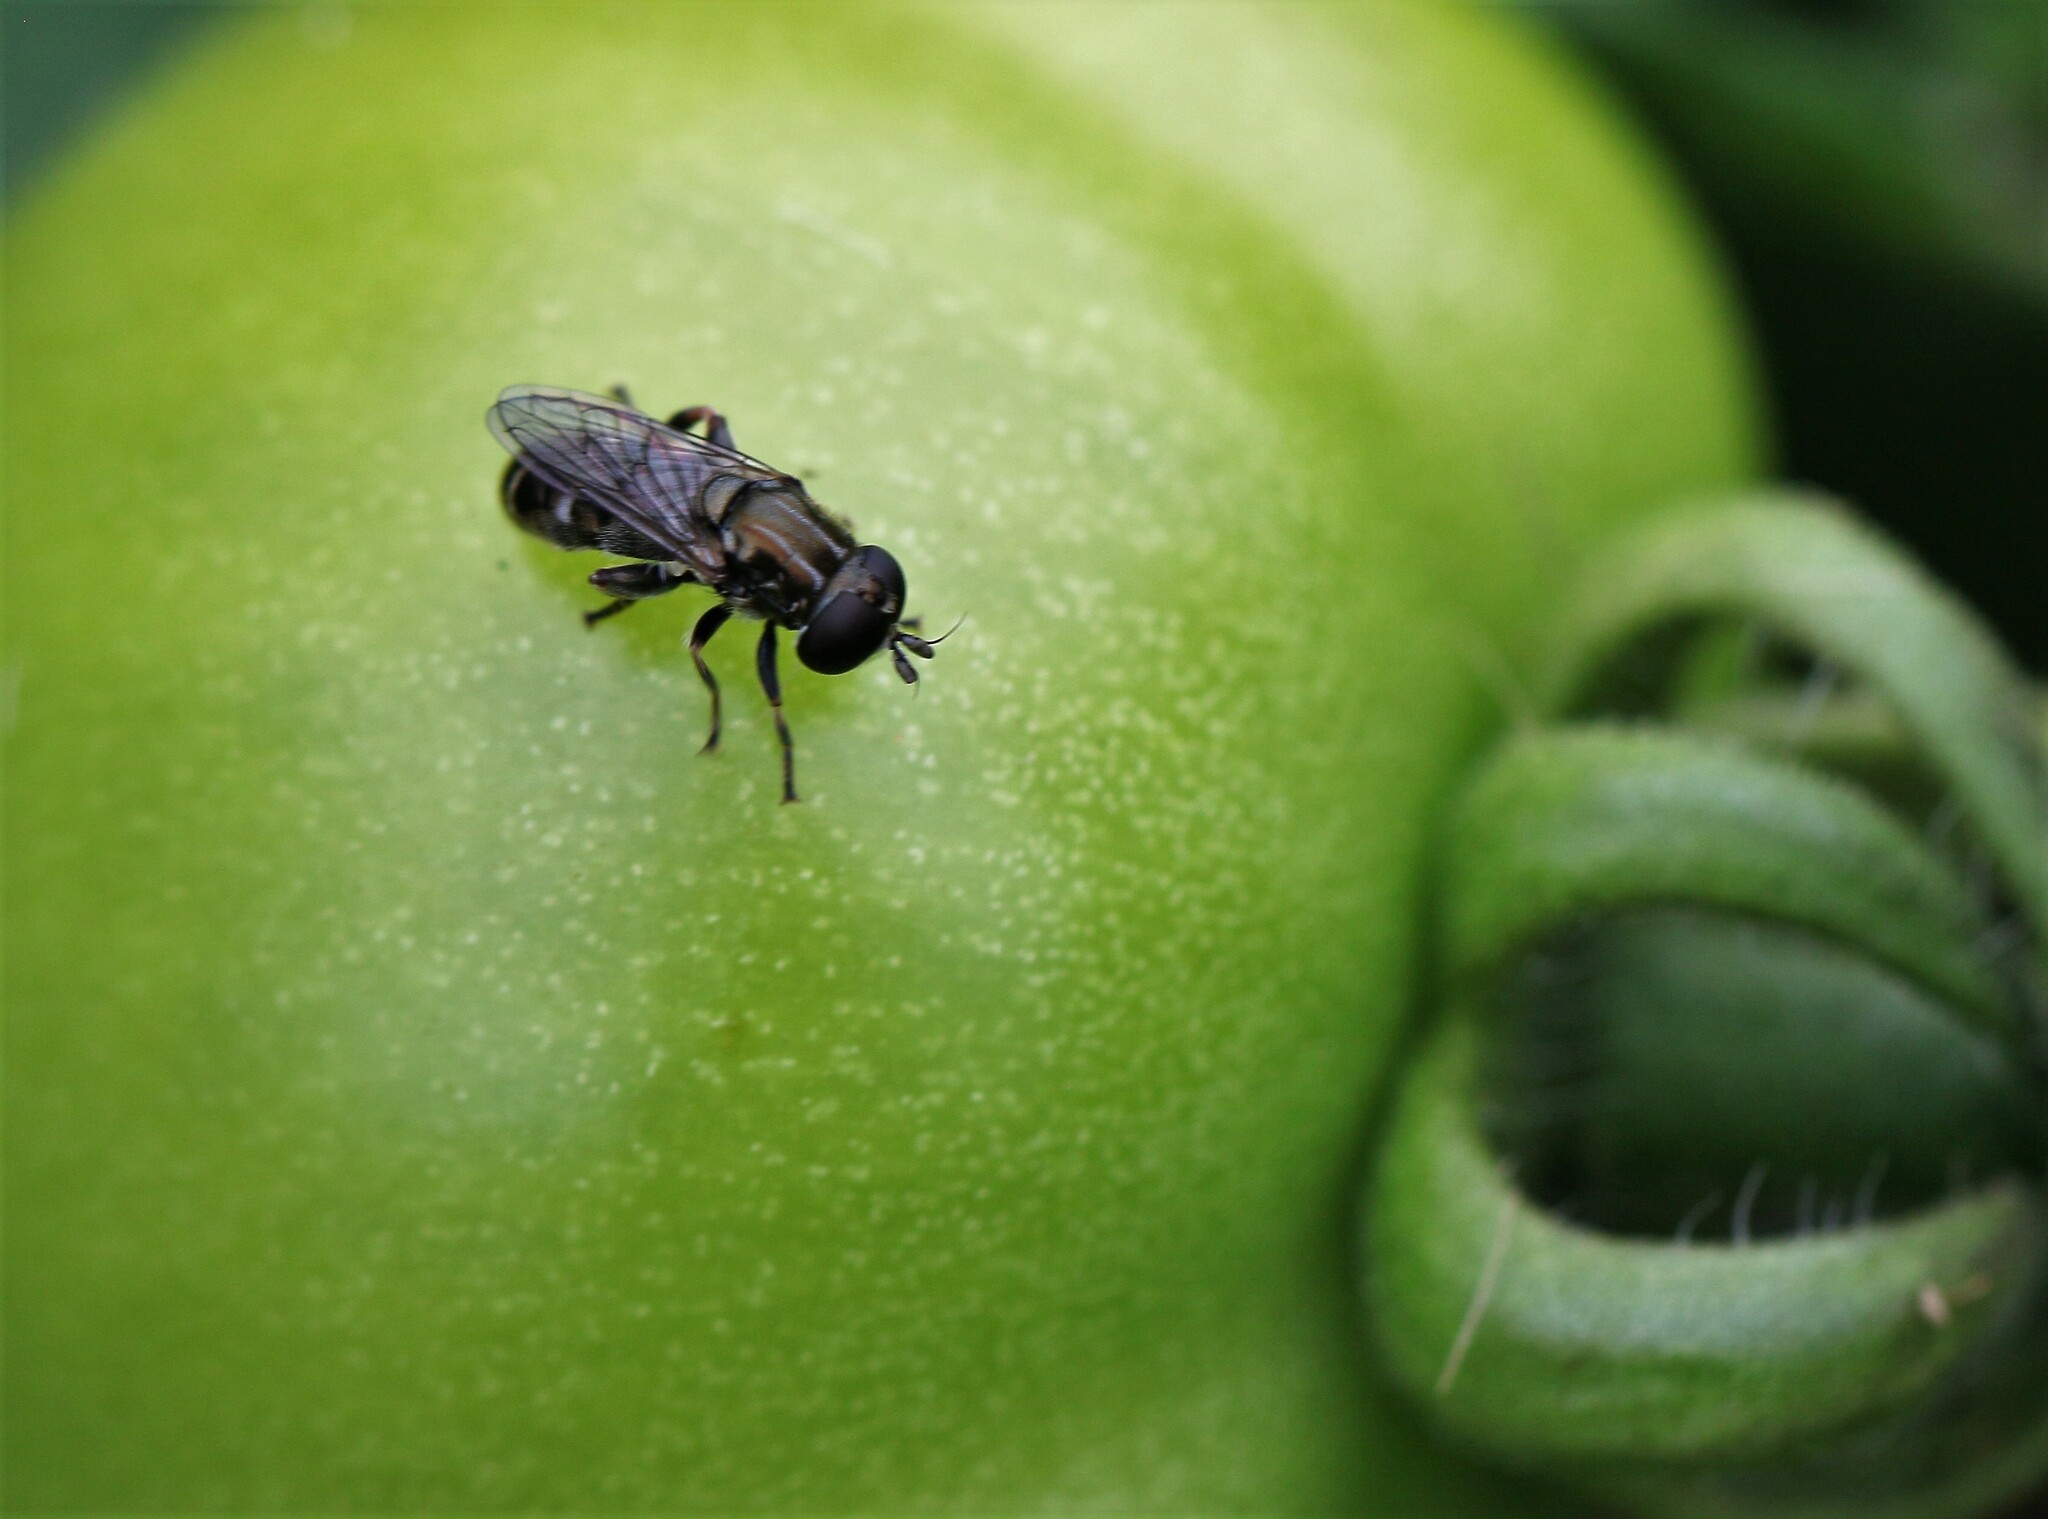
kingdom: Animalia
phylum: Arthropoda
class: Insecta
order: Diptera
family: Syrphidae
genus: Eumerus
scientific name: Eumerus
